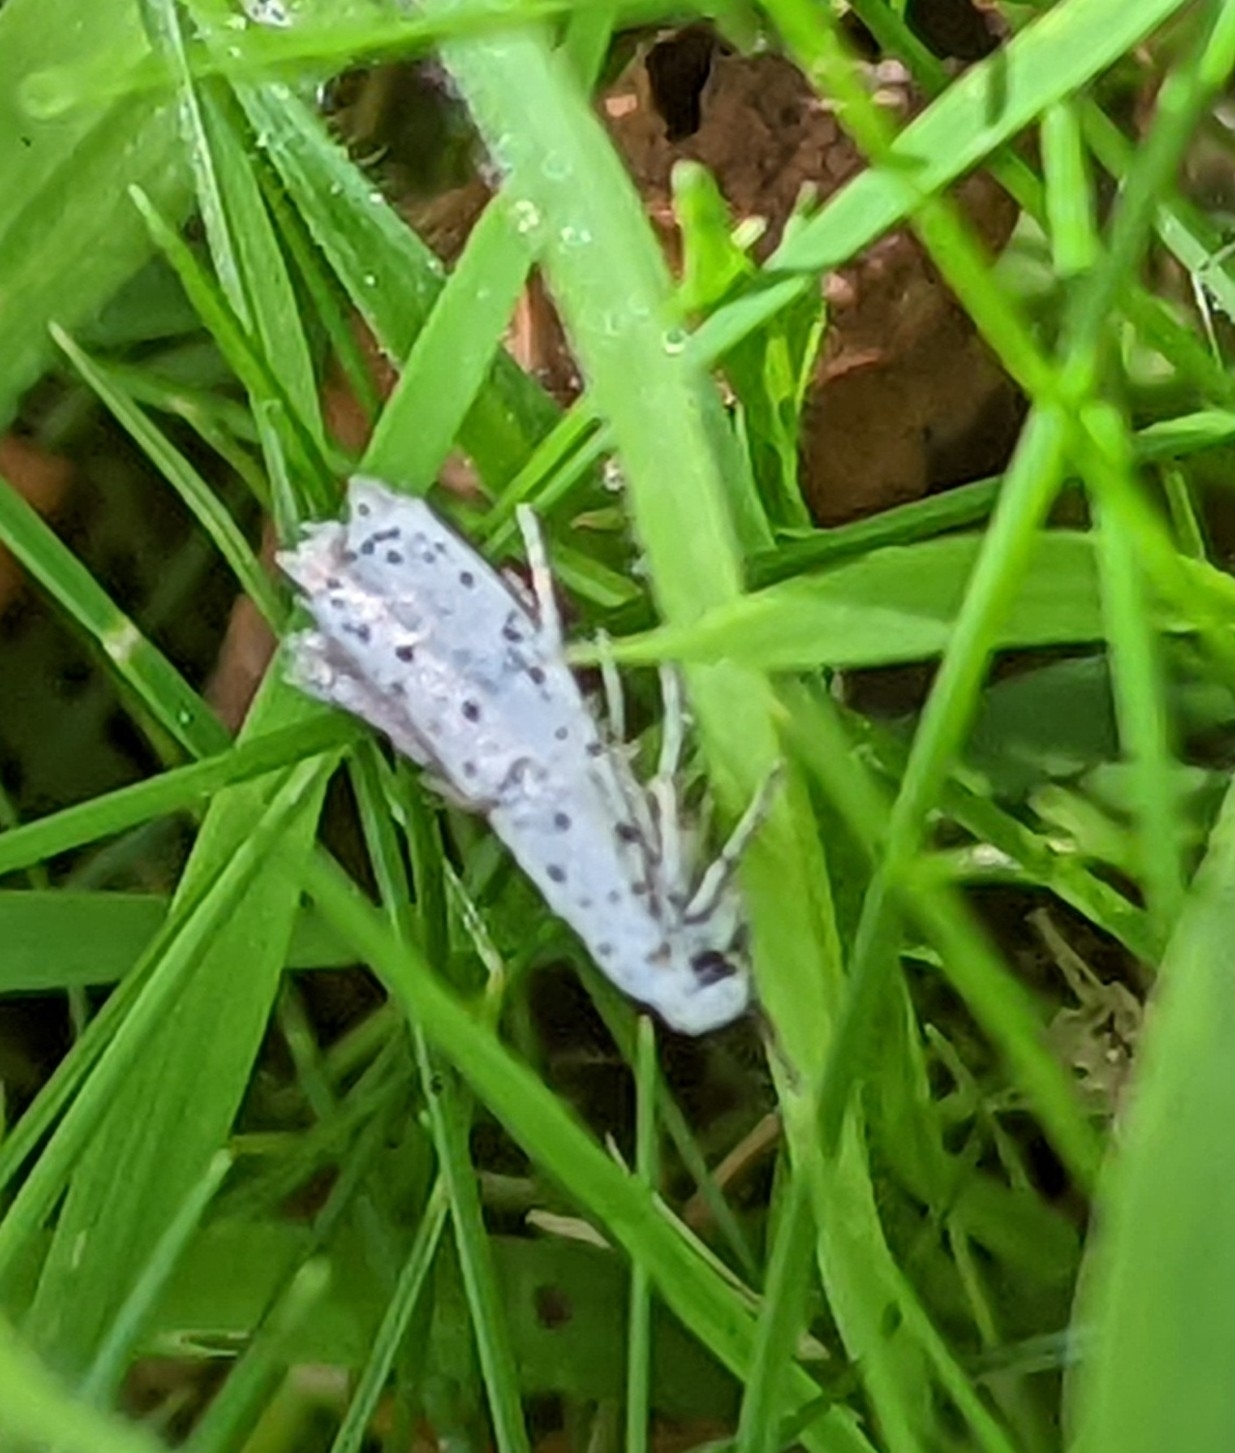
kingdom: Animalia
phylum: Arthropoda
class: Insecta
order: Lepidoptera
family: Yponomeutidae
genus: Yponomeuta
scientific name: Yponomeuta evonymella
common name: Bird-cherry ermine
